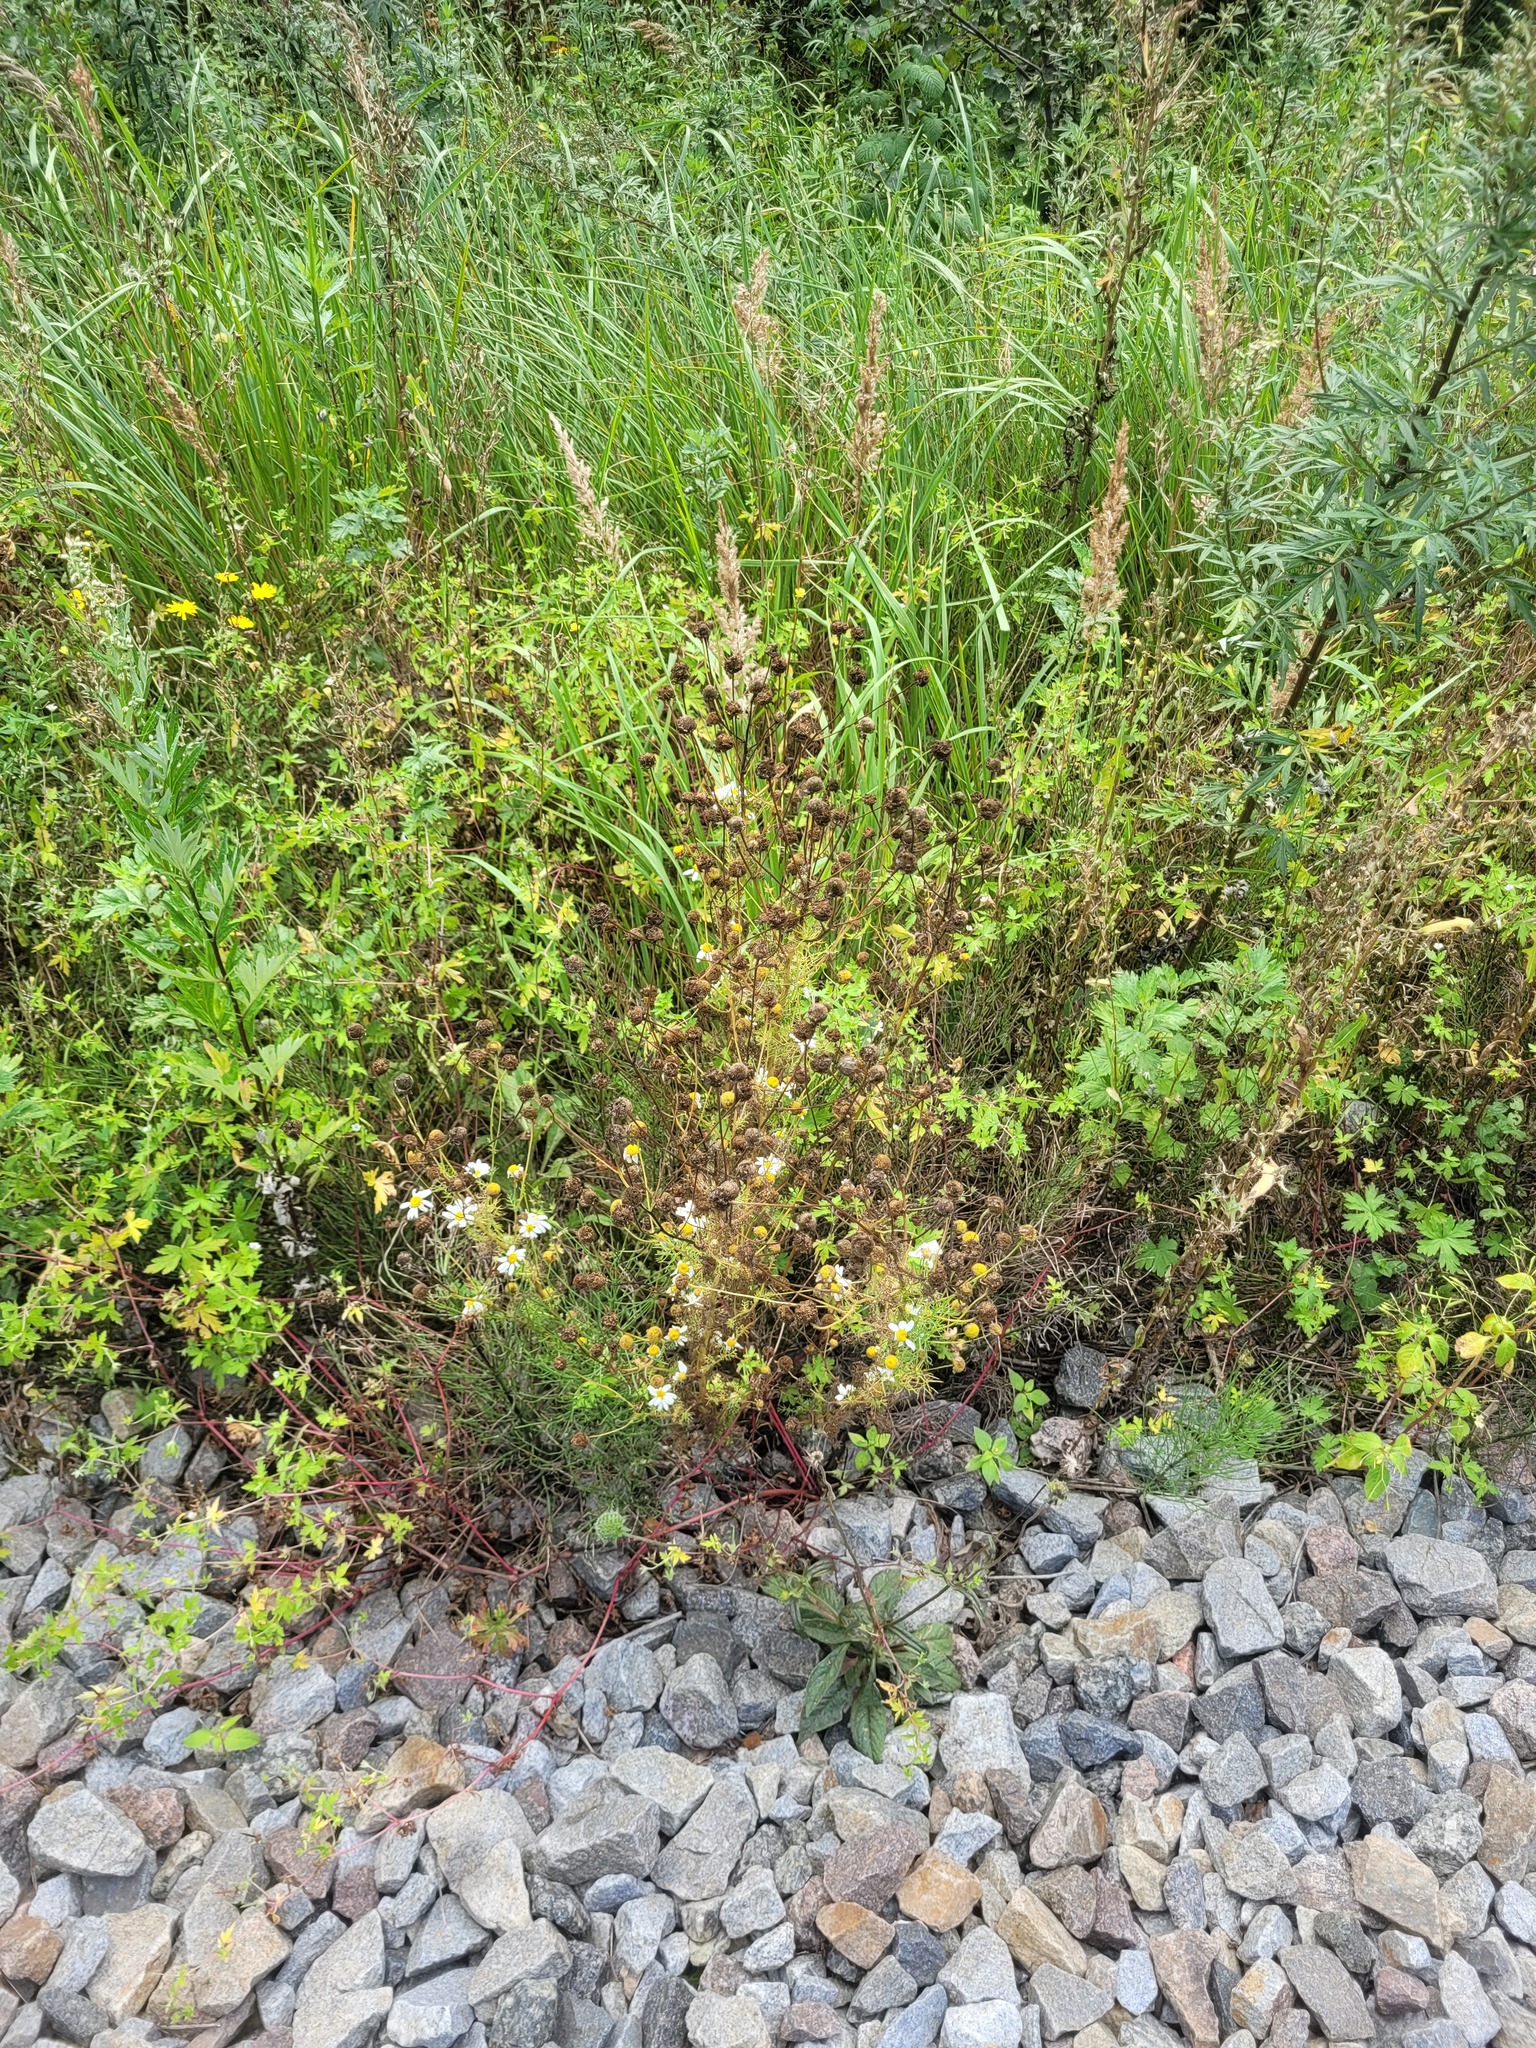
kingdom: Plantae
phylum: Tracheophyta
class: Magnoliopsida
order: Asterales
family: Asteraceae
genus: Tripleurospermum
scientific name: Tripleurospermum inodorum
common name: Scentless mayweed
